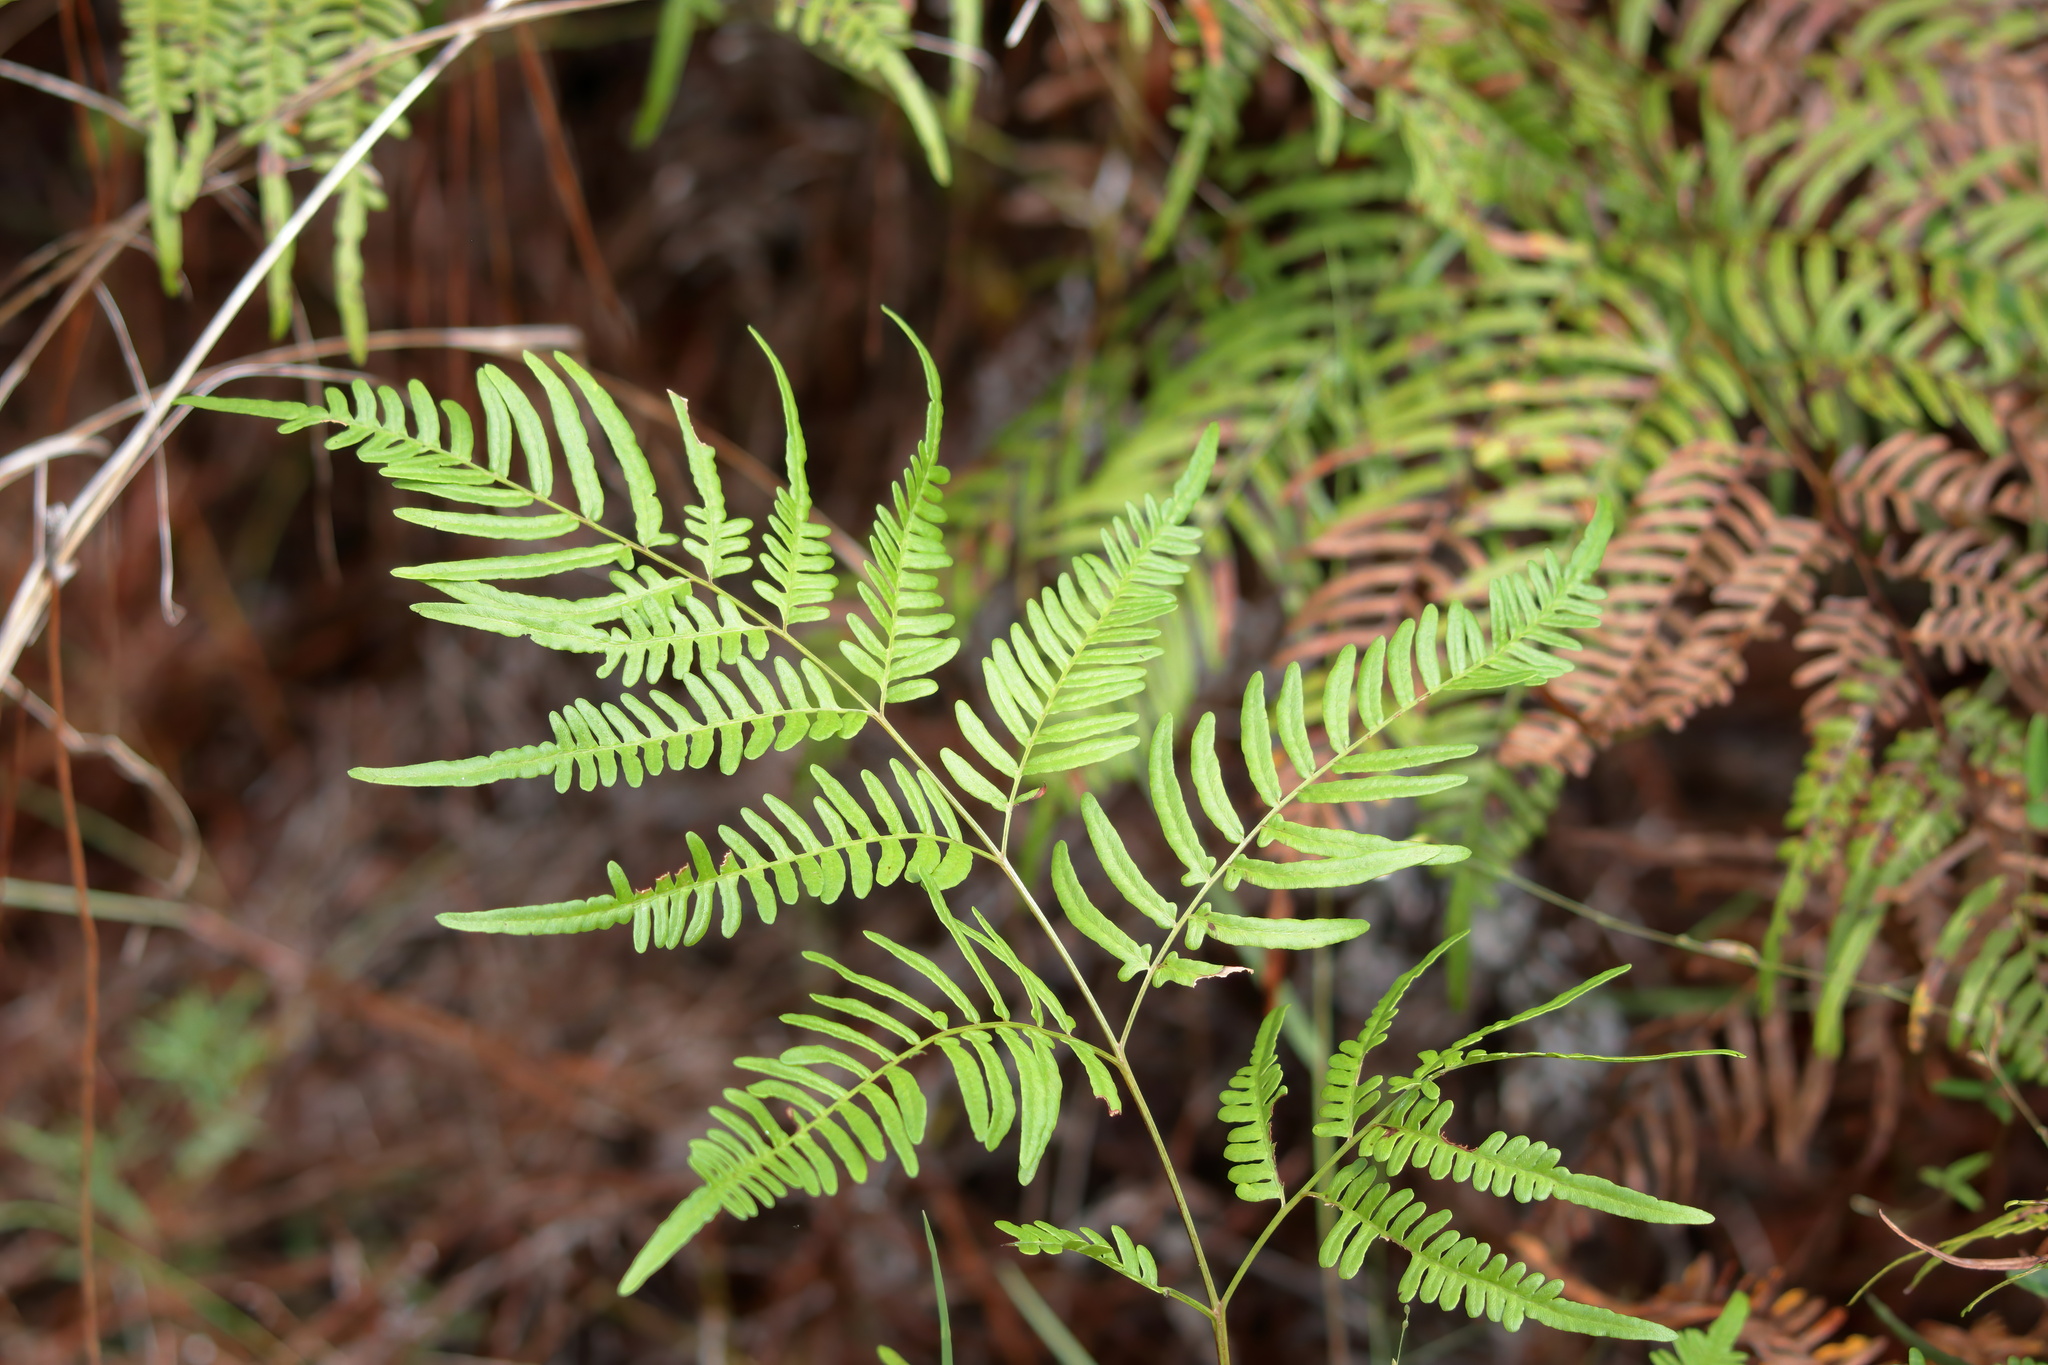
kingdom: Plantae
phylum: Tracheophyta
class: Polypodiopsida
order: Polypodiales
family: Dennstaedtiaceae
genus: Pteridium
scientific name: Pteridium
